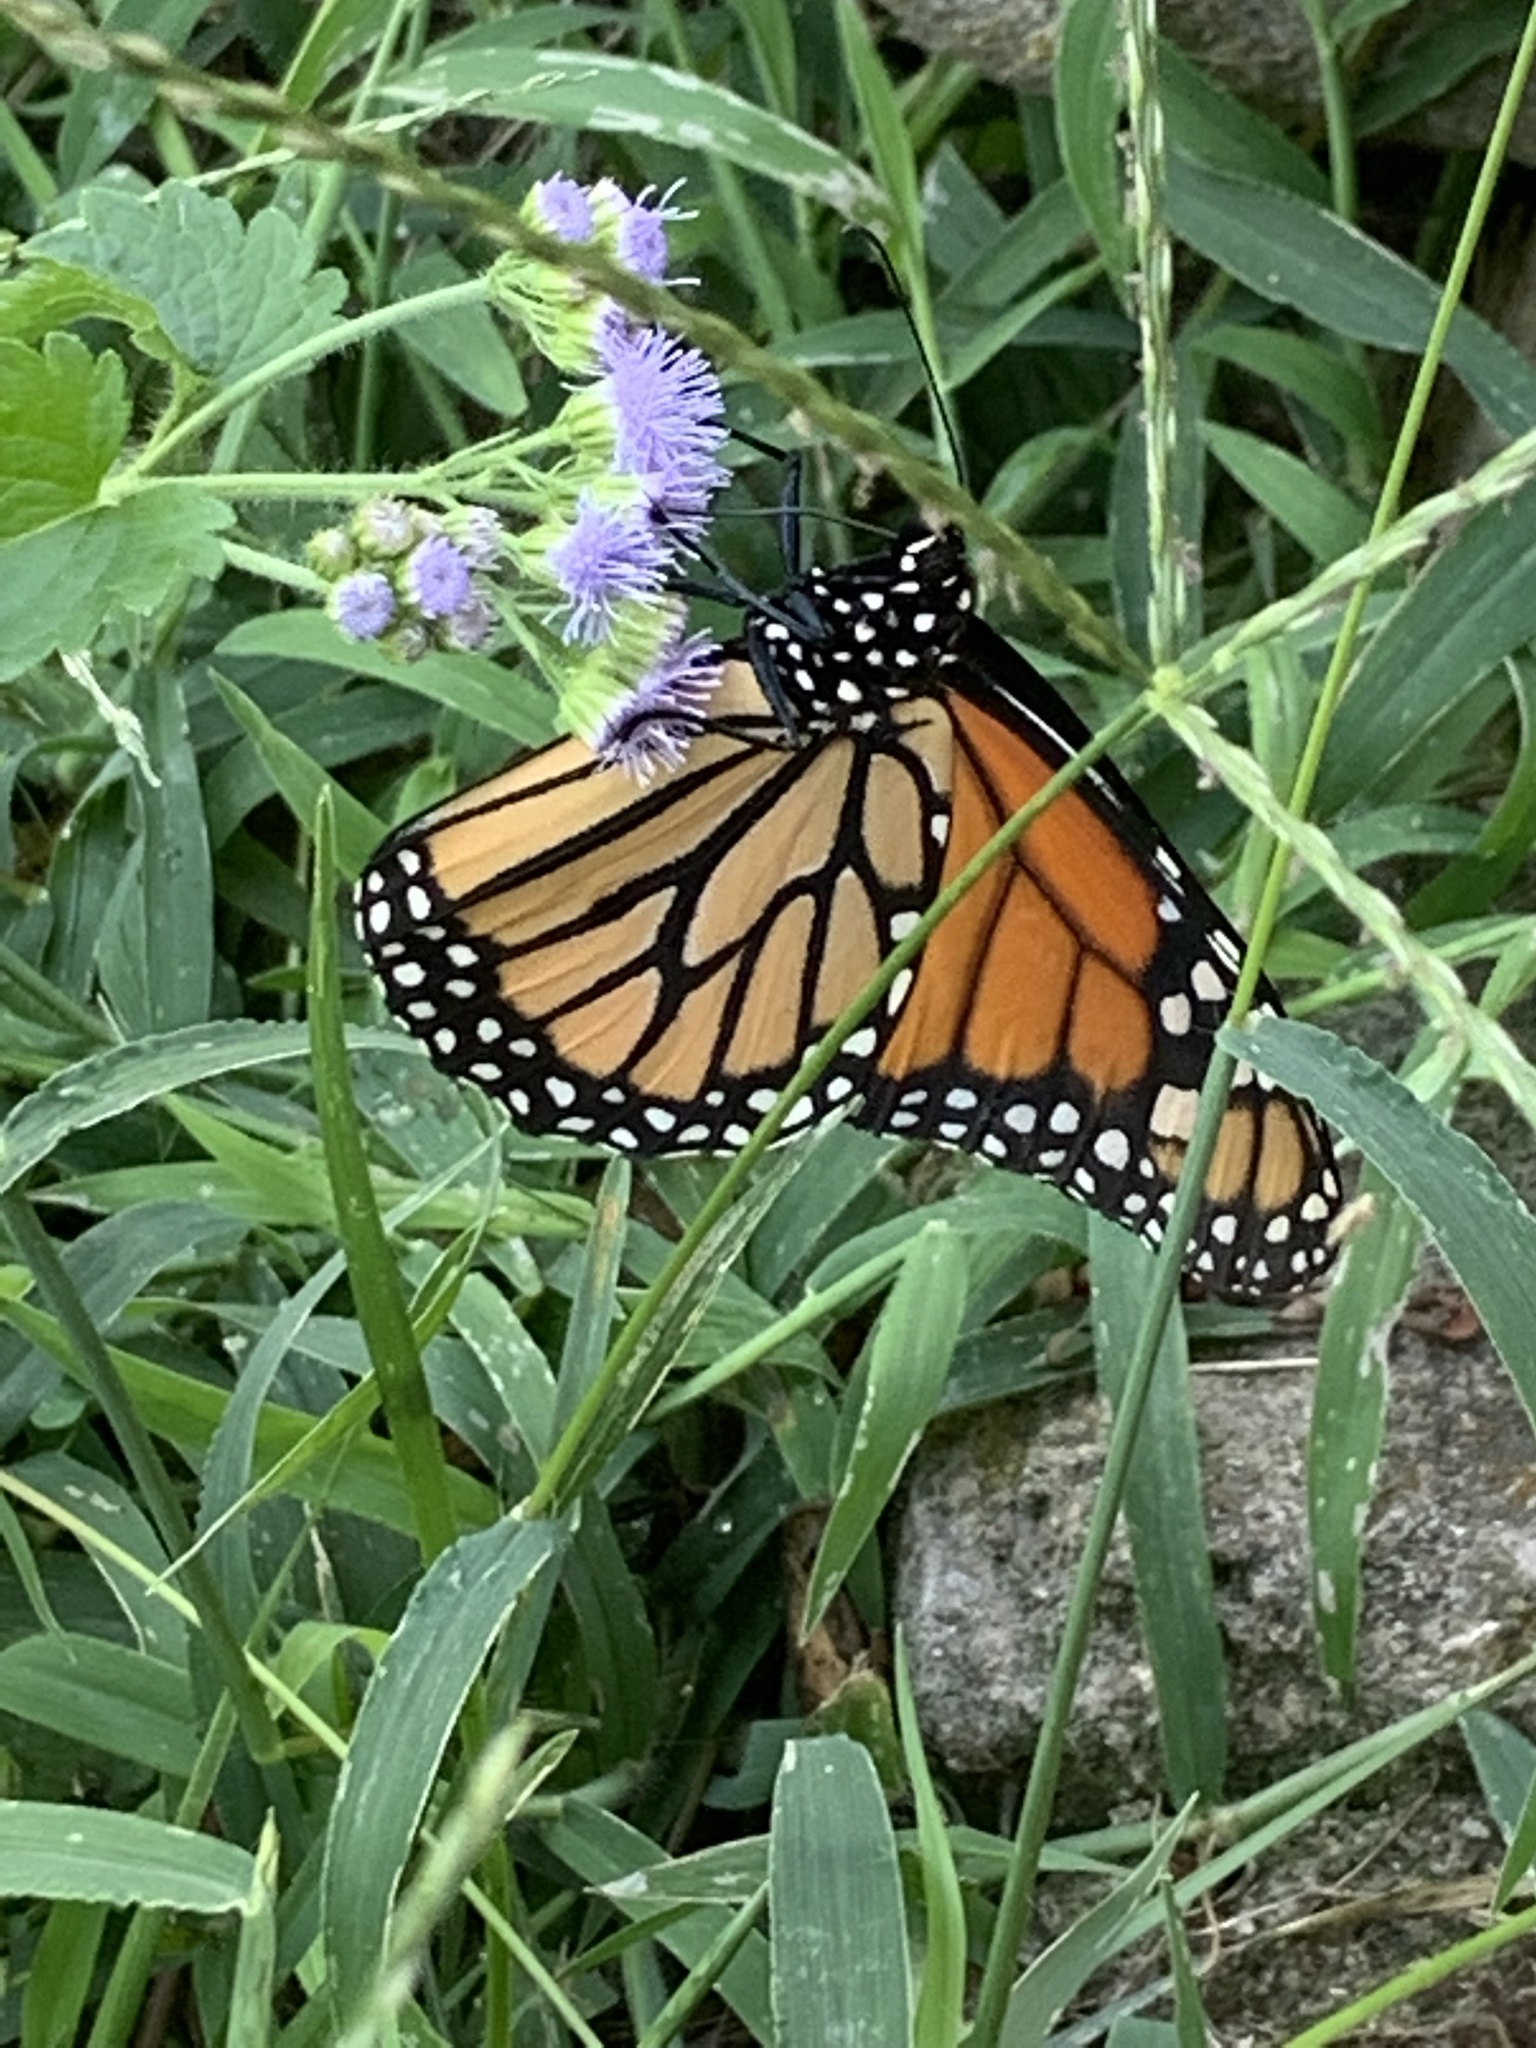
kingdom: Animalia
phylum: Arthropoda
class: Insecta
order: Lepidoptera
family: Nymphalidae
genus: Danaus
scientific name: Danaus plexippus
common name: Monarch
